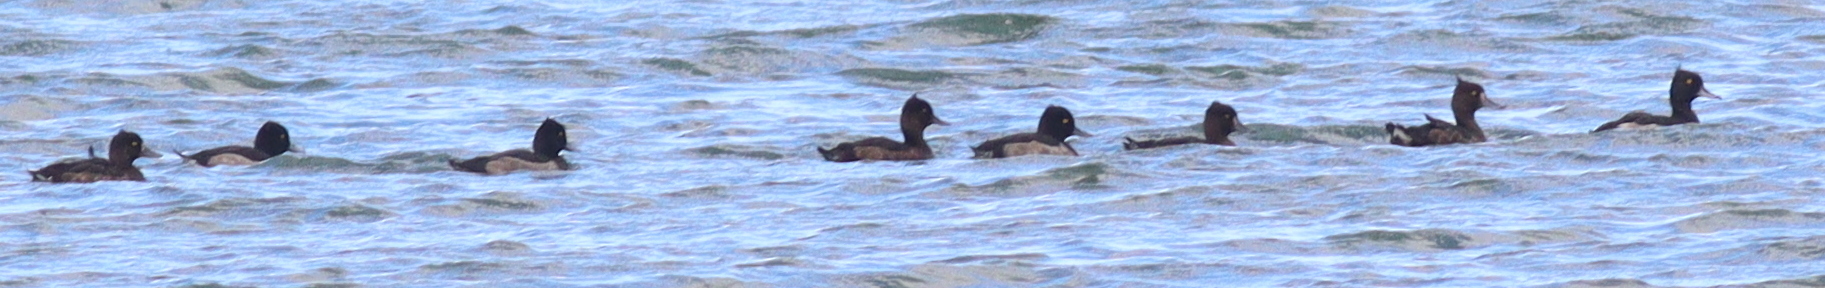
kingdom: Animalia
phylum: Chordata
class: Aves
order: Anseriformes
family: Anatidae
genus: Aythya
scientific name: Aythya fuligula
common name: Tufted duck
